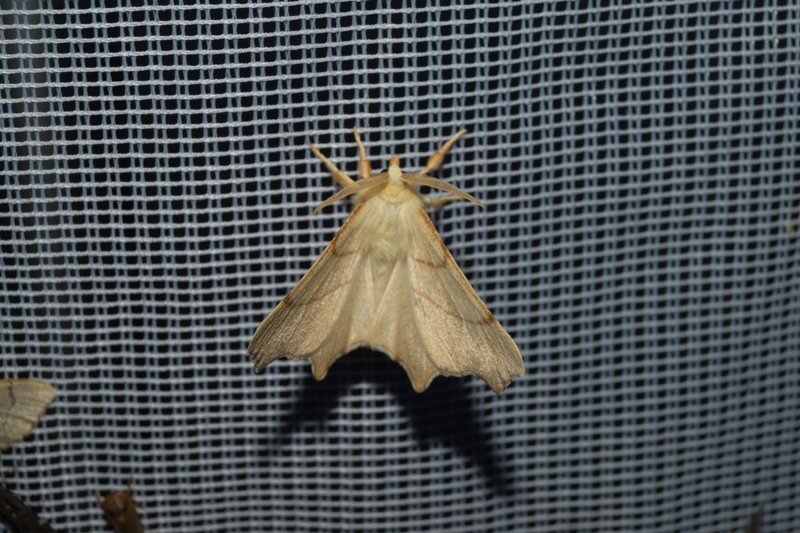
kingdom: Animalia
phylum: Arthropoda
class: Insecta
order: Lepidoptera
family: Geometridae
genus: Ennomos
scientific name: Ennomos erosaria
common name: September thorn
